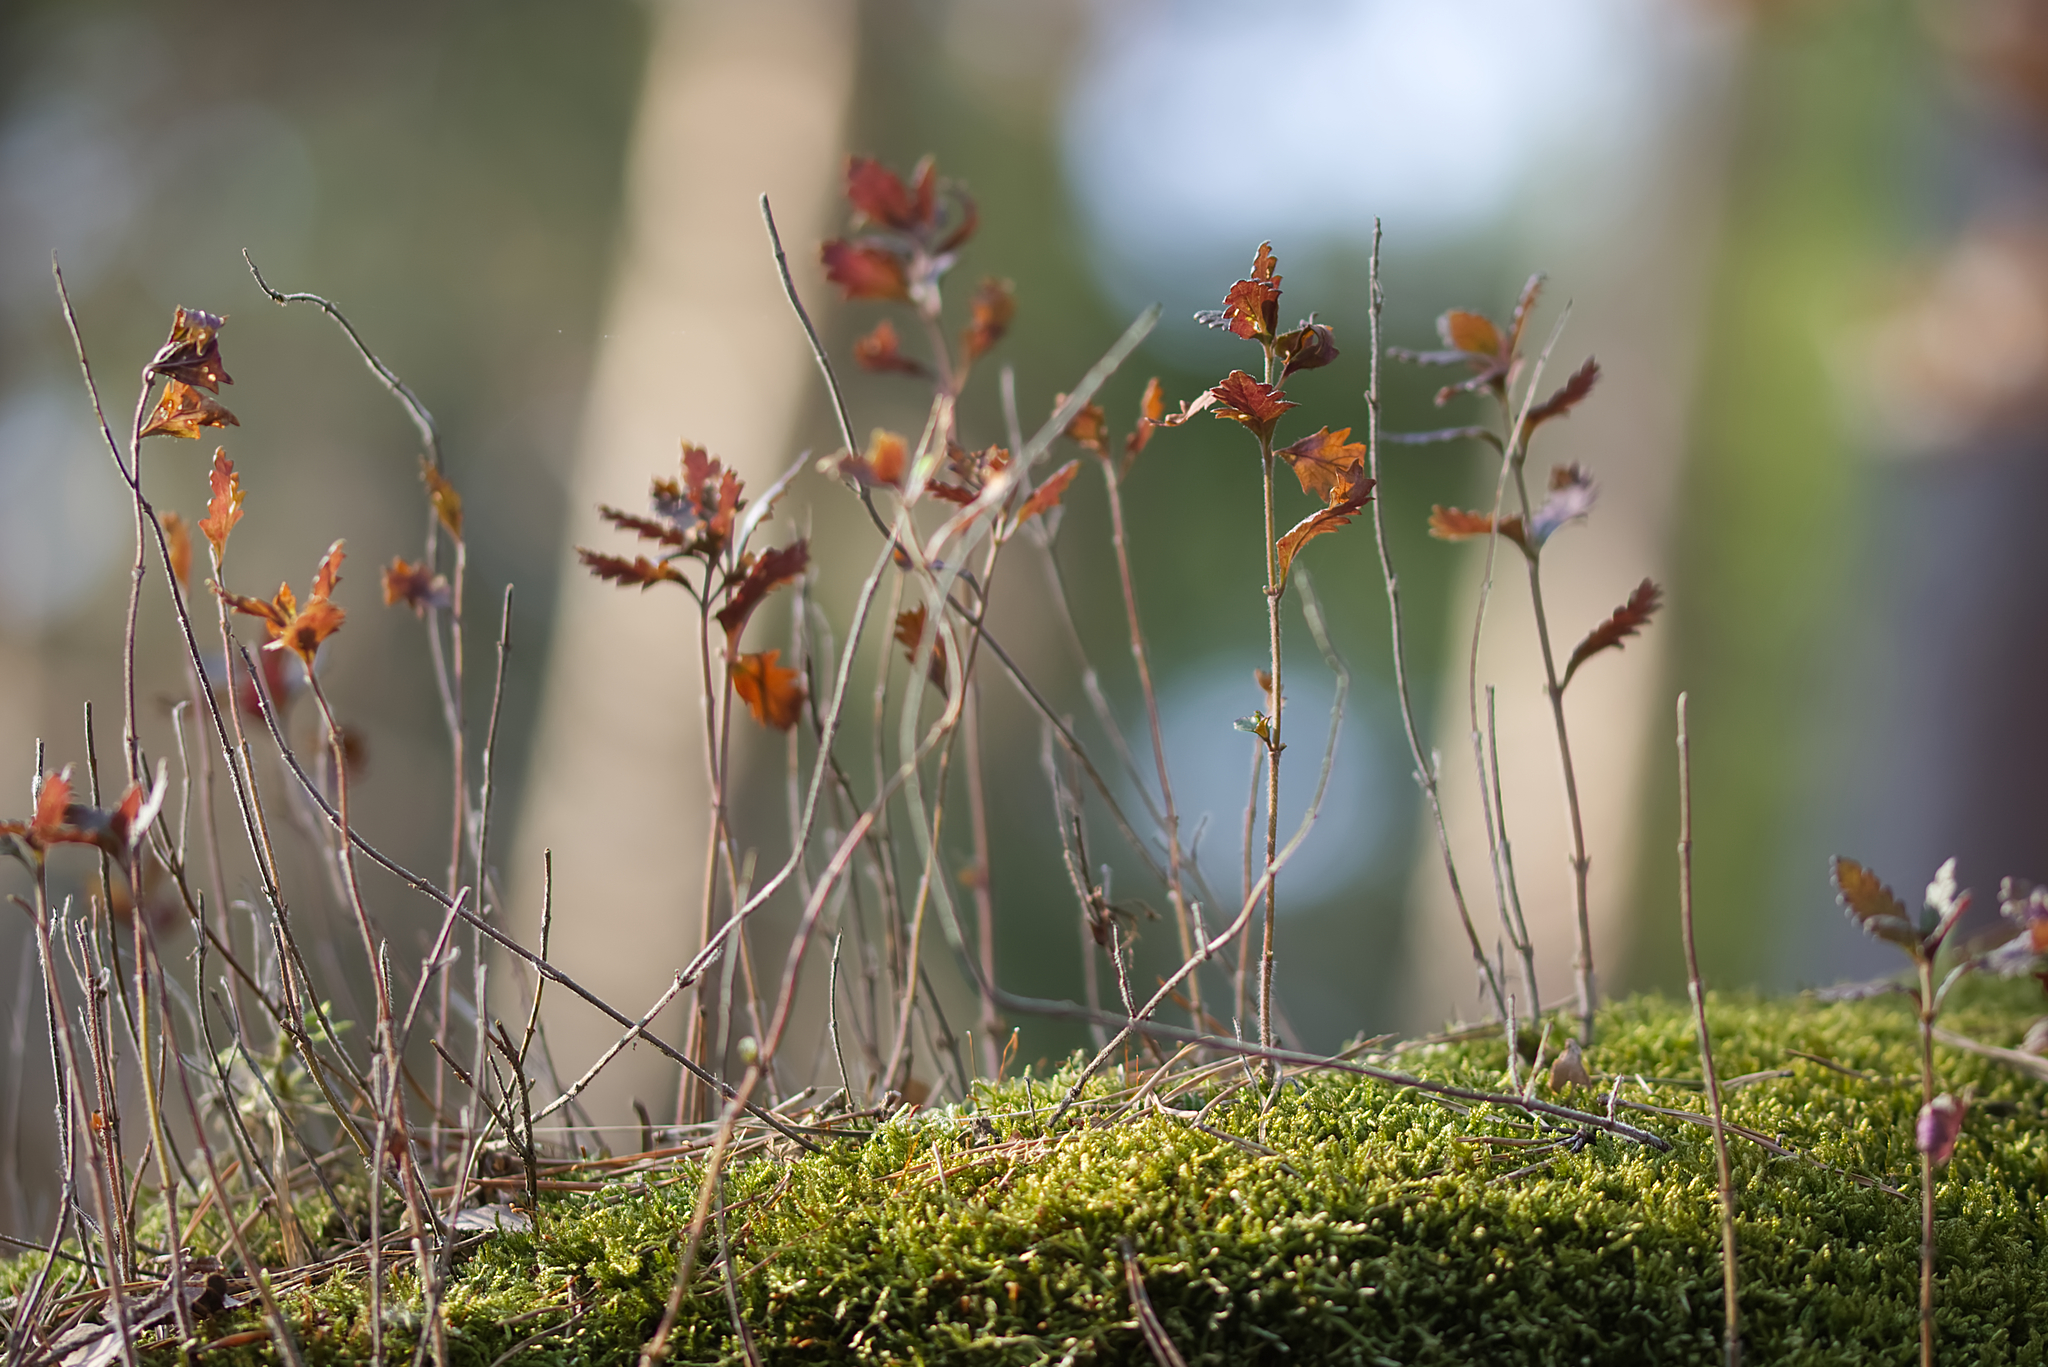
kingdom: Plantae
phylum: Tracheophyta
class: Magnoliopsida
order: Lamiales
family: Lamiaceae
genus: Teucrium
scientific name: Teucrium chamaedrys
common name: Wall germander
